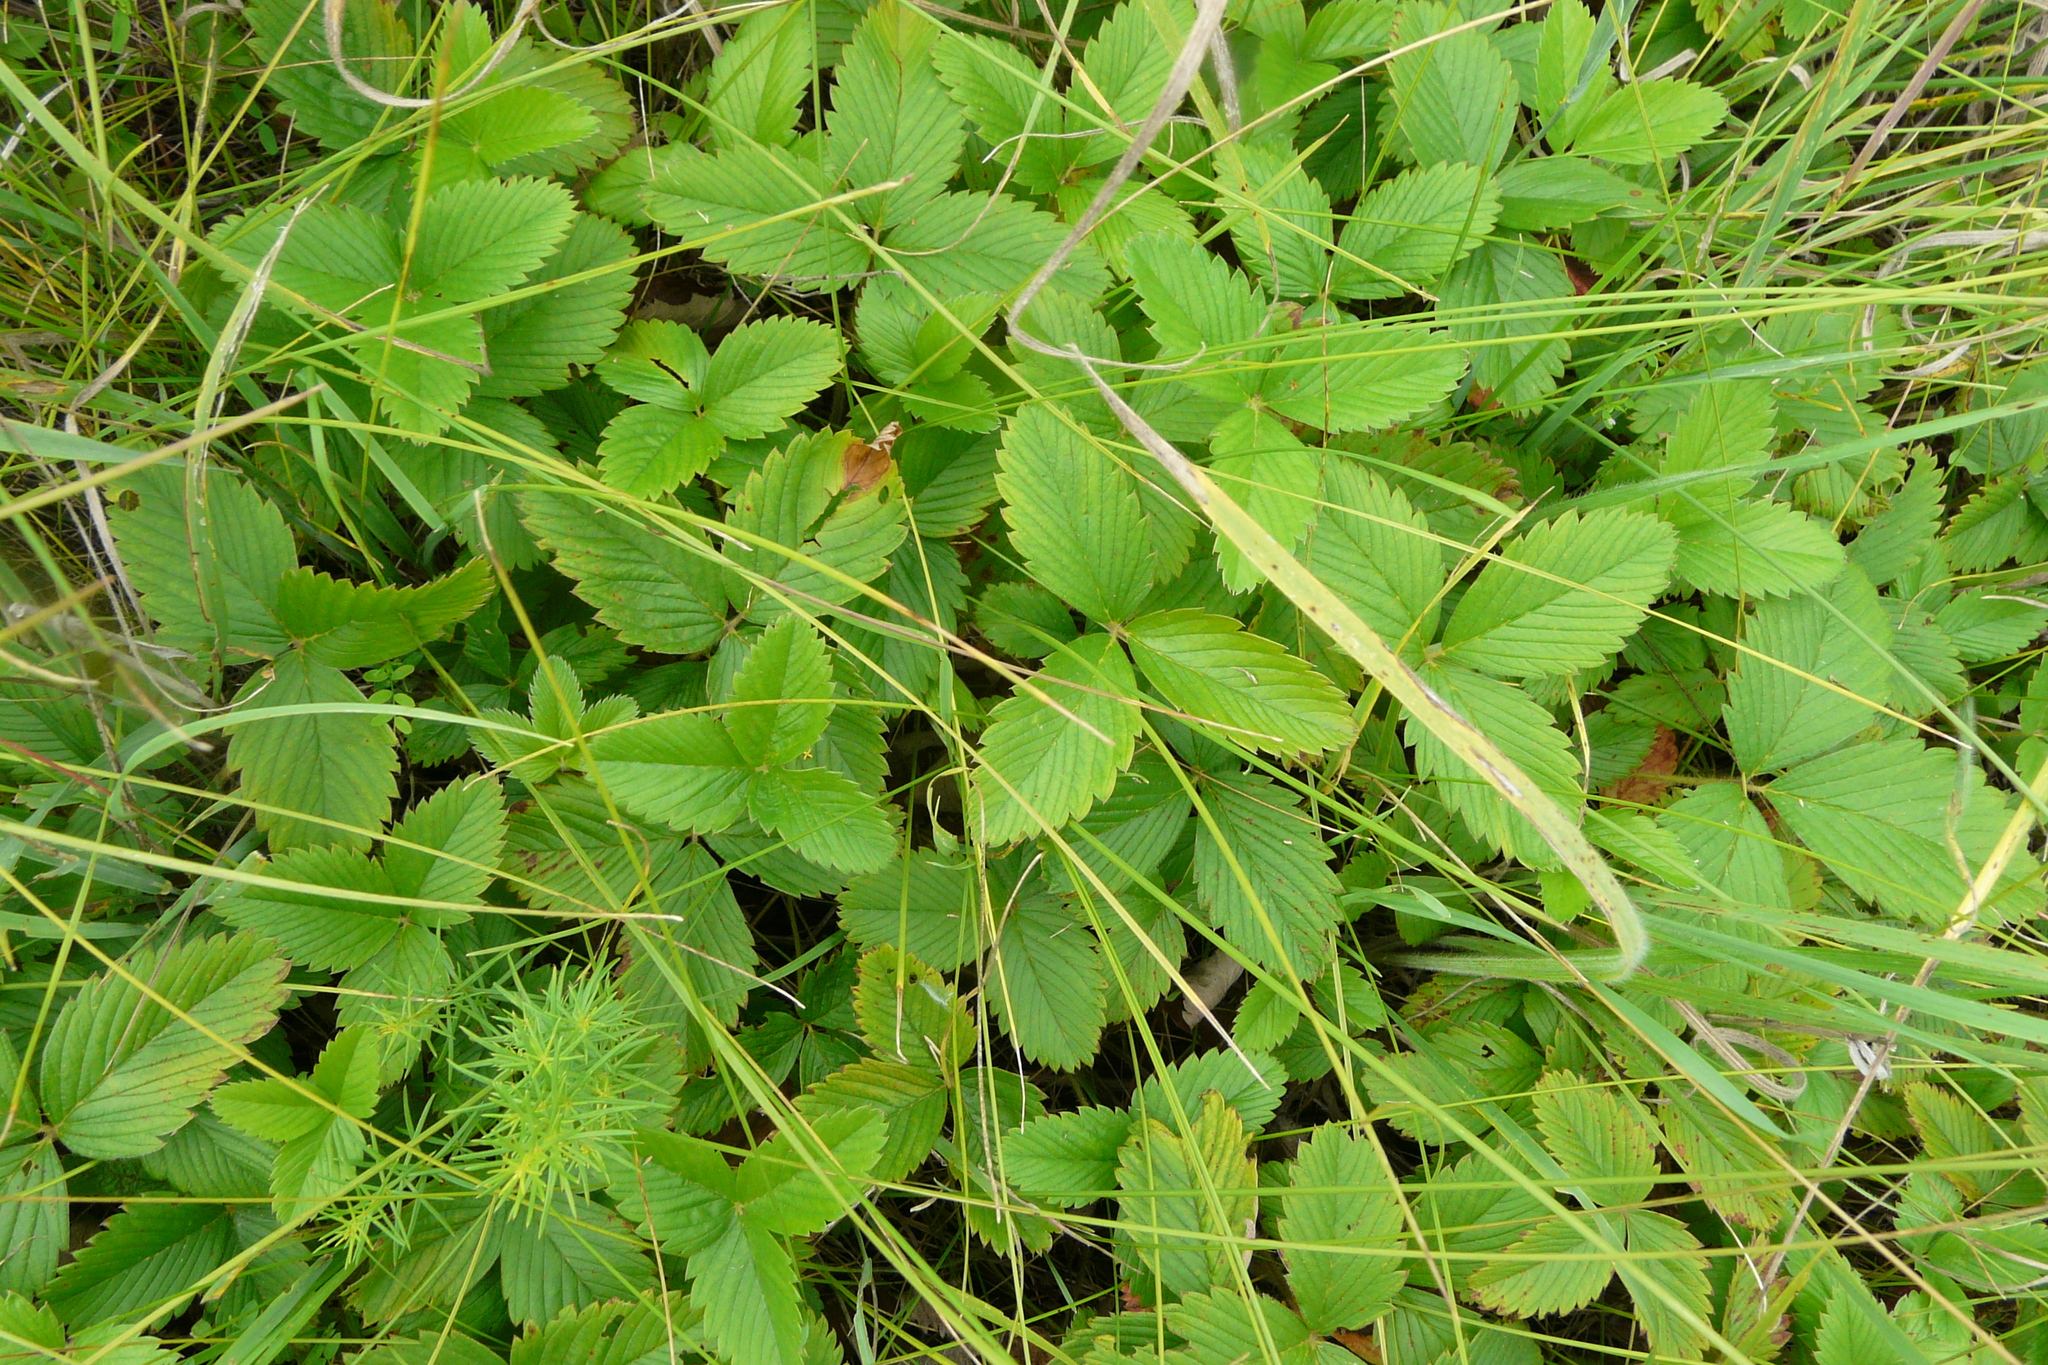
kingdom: Plantae
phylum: Tracheophyta
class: Magnoliopsida
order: Rosales
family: Rosaceae
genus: Fragaria
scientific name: Fragaria viridis
